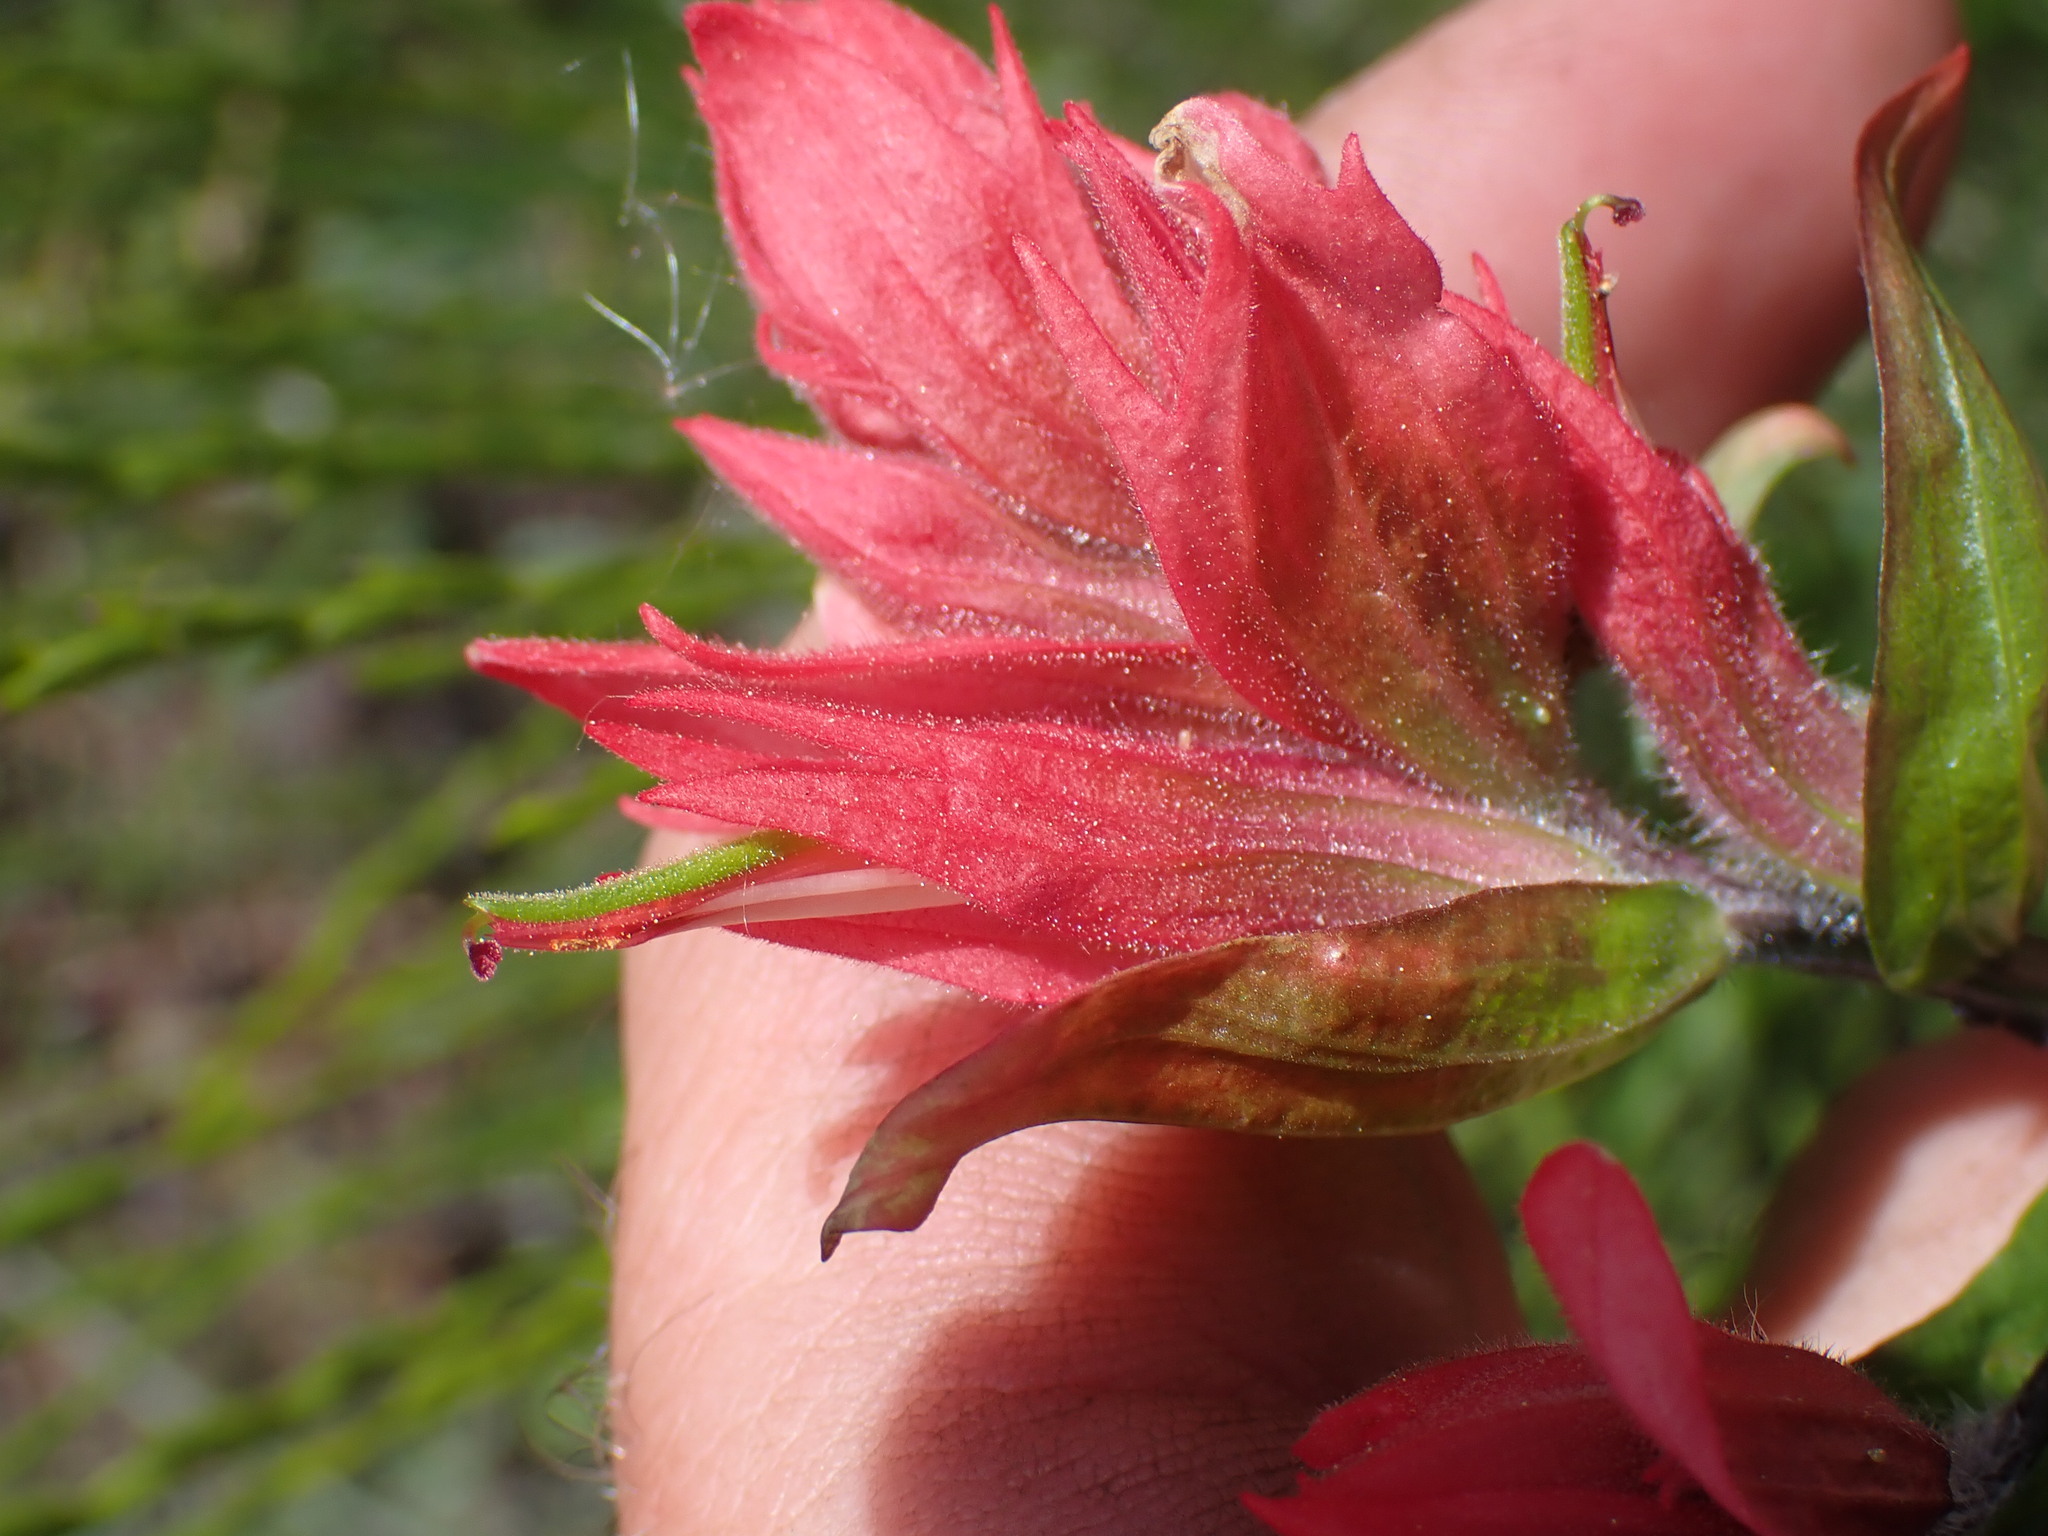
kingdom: Plantae
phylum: Tracheophyta
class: Magnoliopsida
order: Lamiales
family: Orobanchaceae
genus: Castilleja
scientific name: Castilleja miniata
